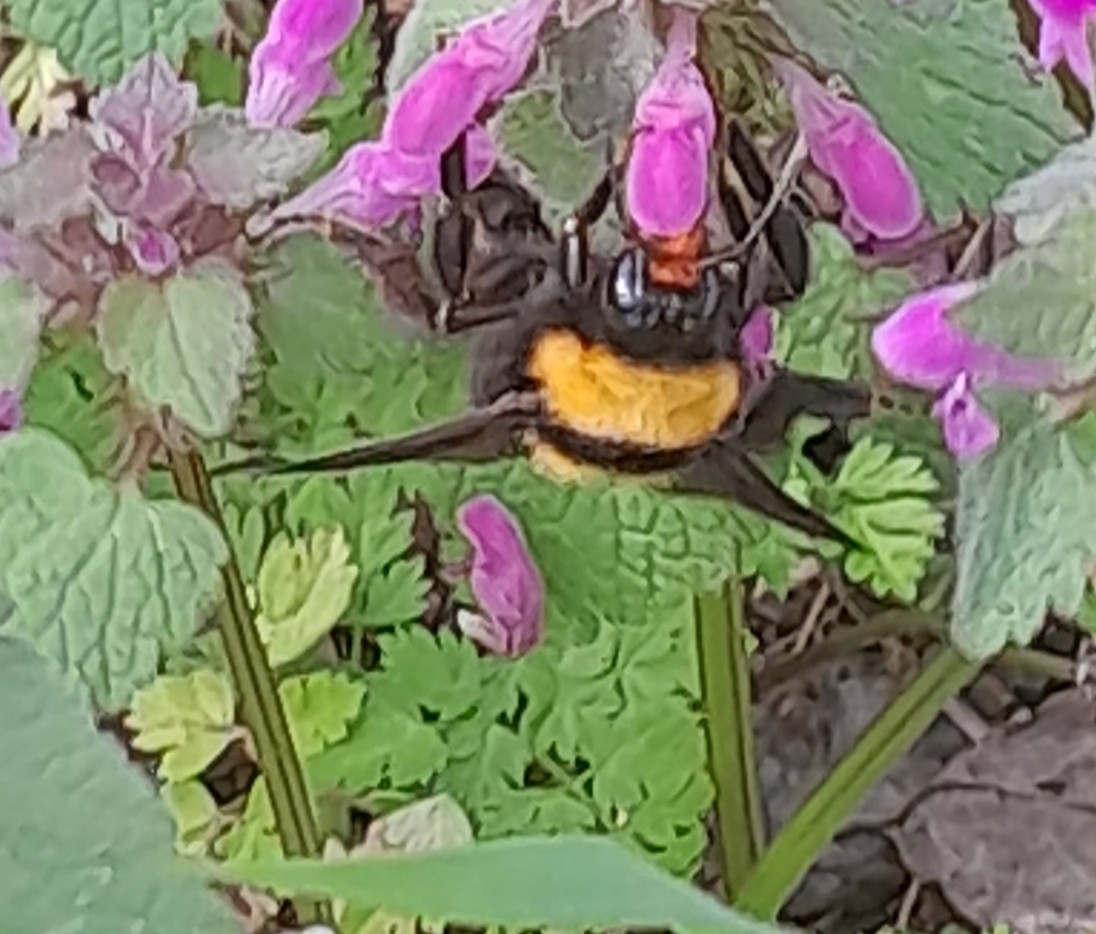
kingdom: Animalia
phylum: Arthropoda
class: Insecta
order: Hymenoptera
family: Apidae
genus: Bombus
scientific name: Bombus argillaceus
